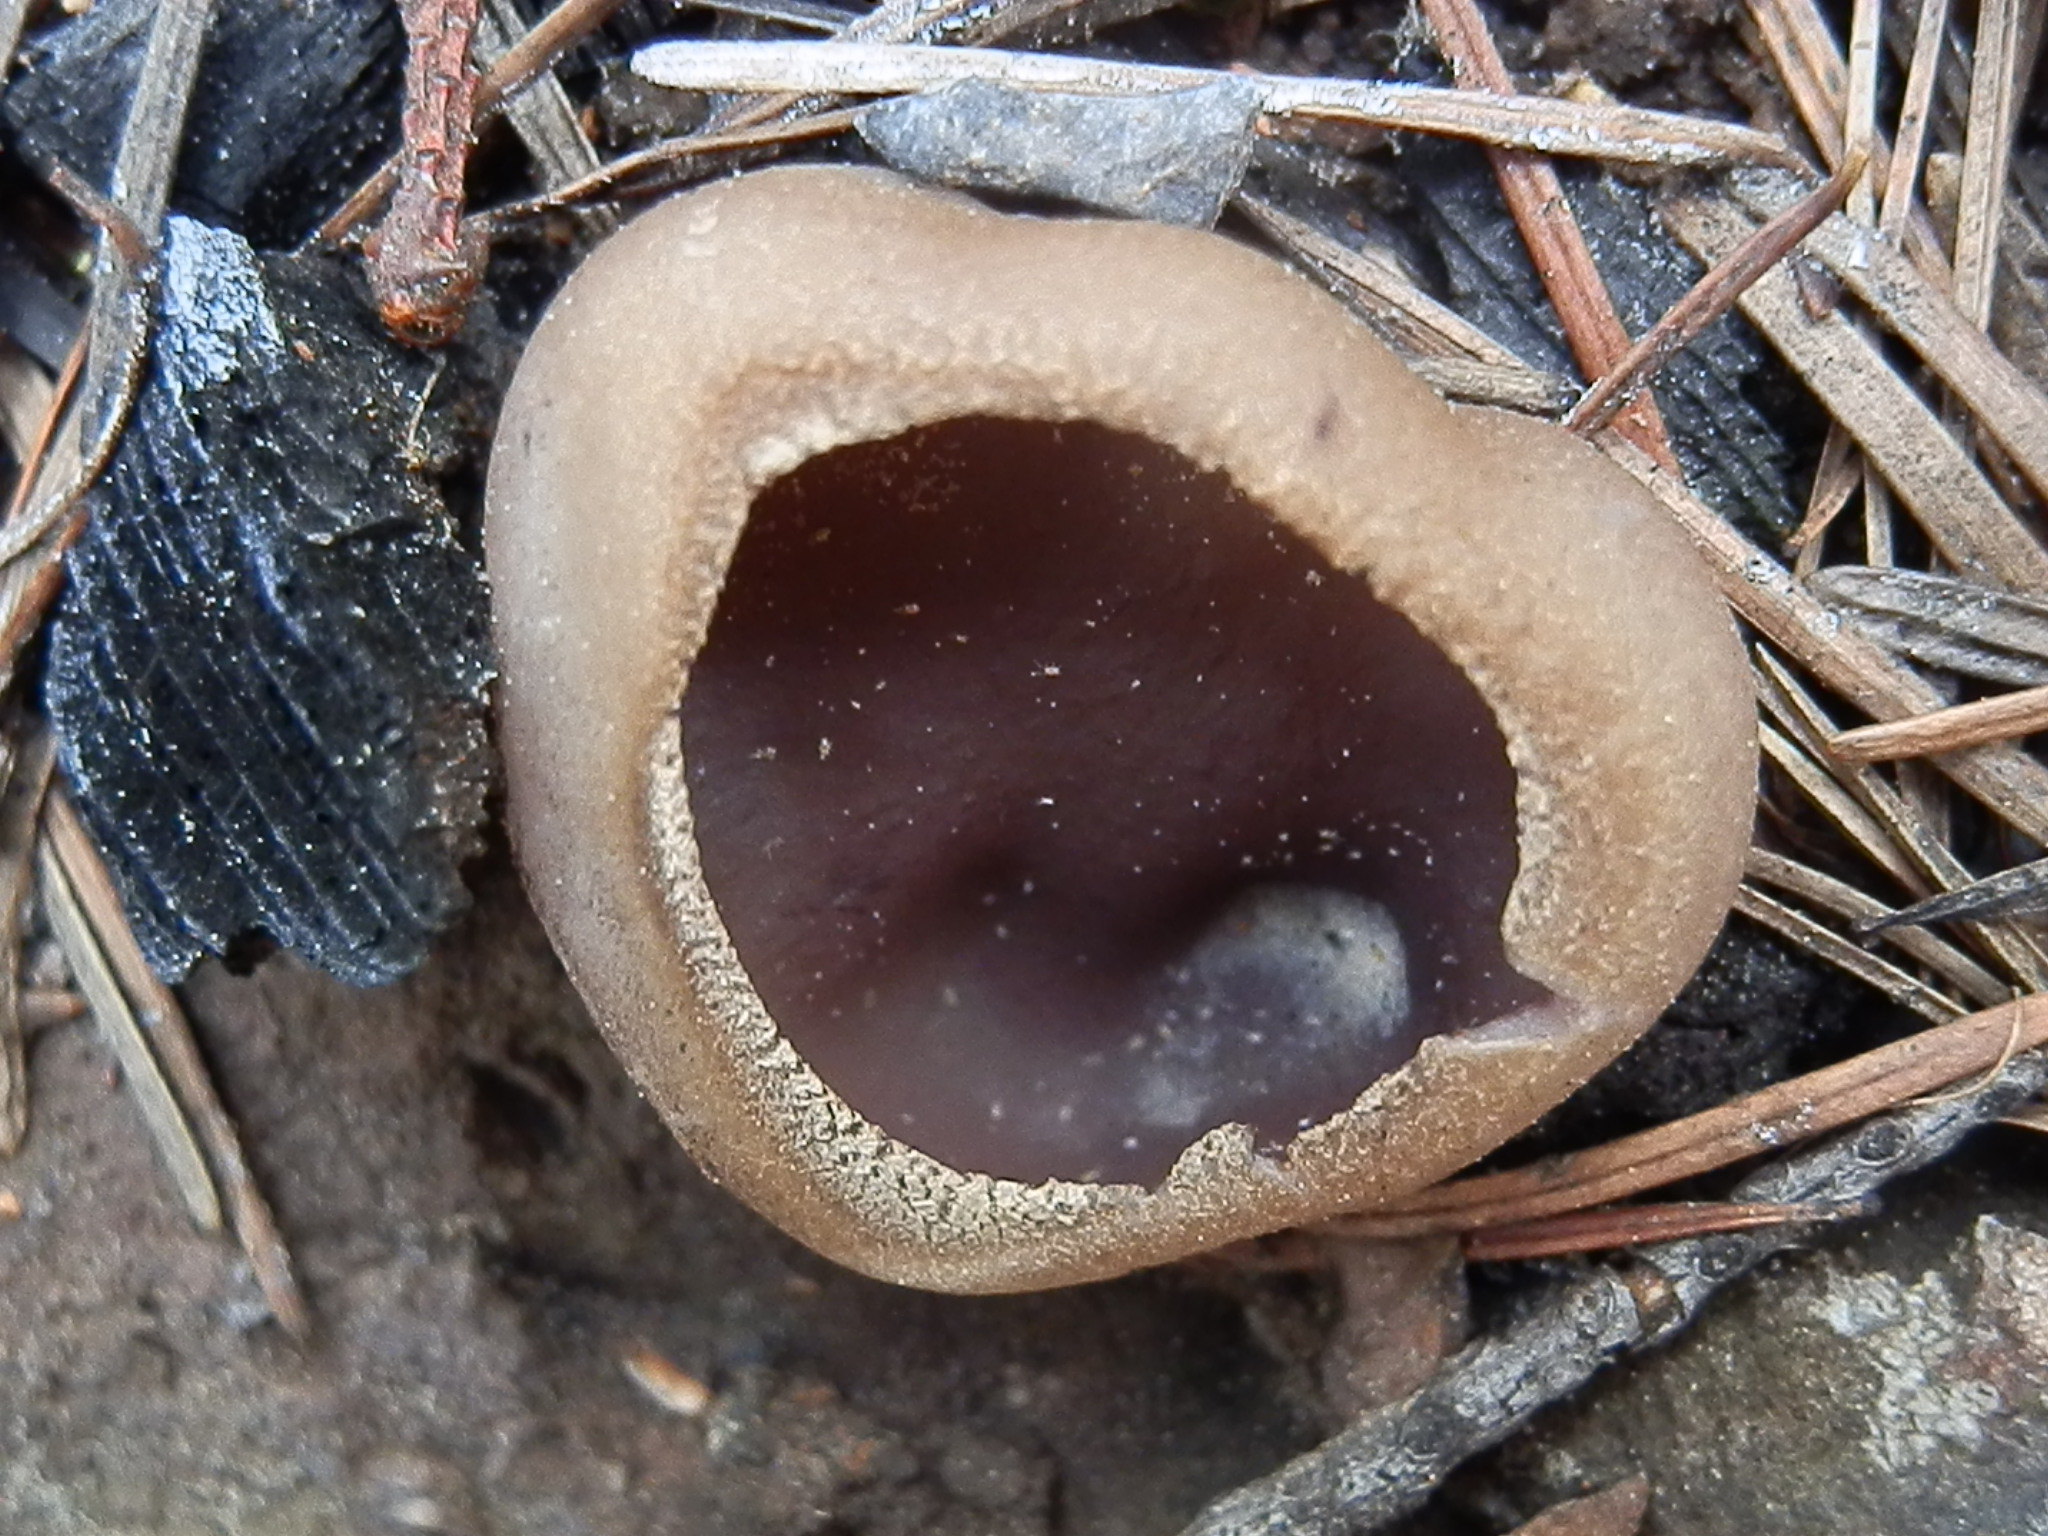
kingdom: Fungi
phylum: Ascomycota
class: Pezizomycetes
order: Pezizales
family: Pezizaceae
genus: Geoscypha
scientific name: Geoscypha violacea
